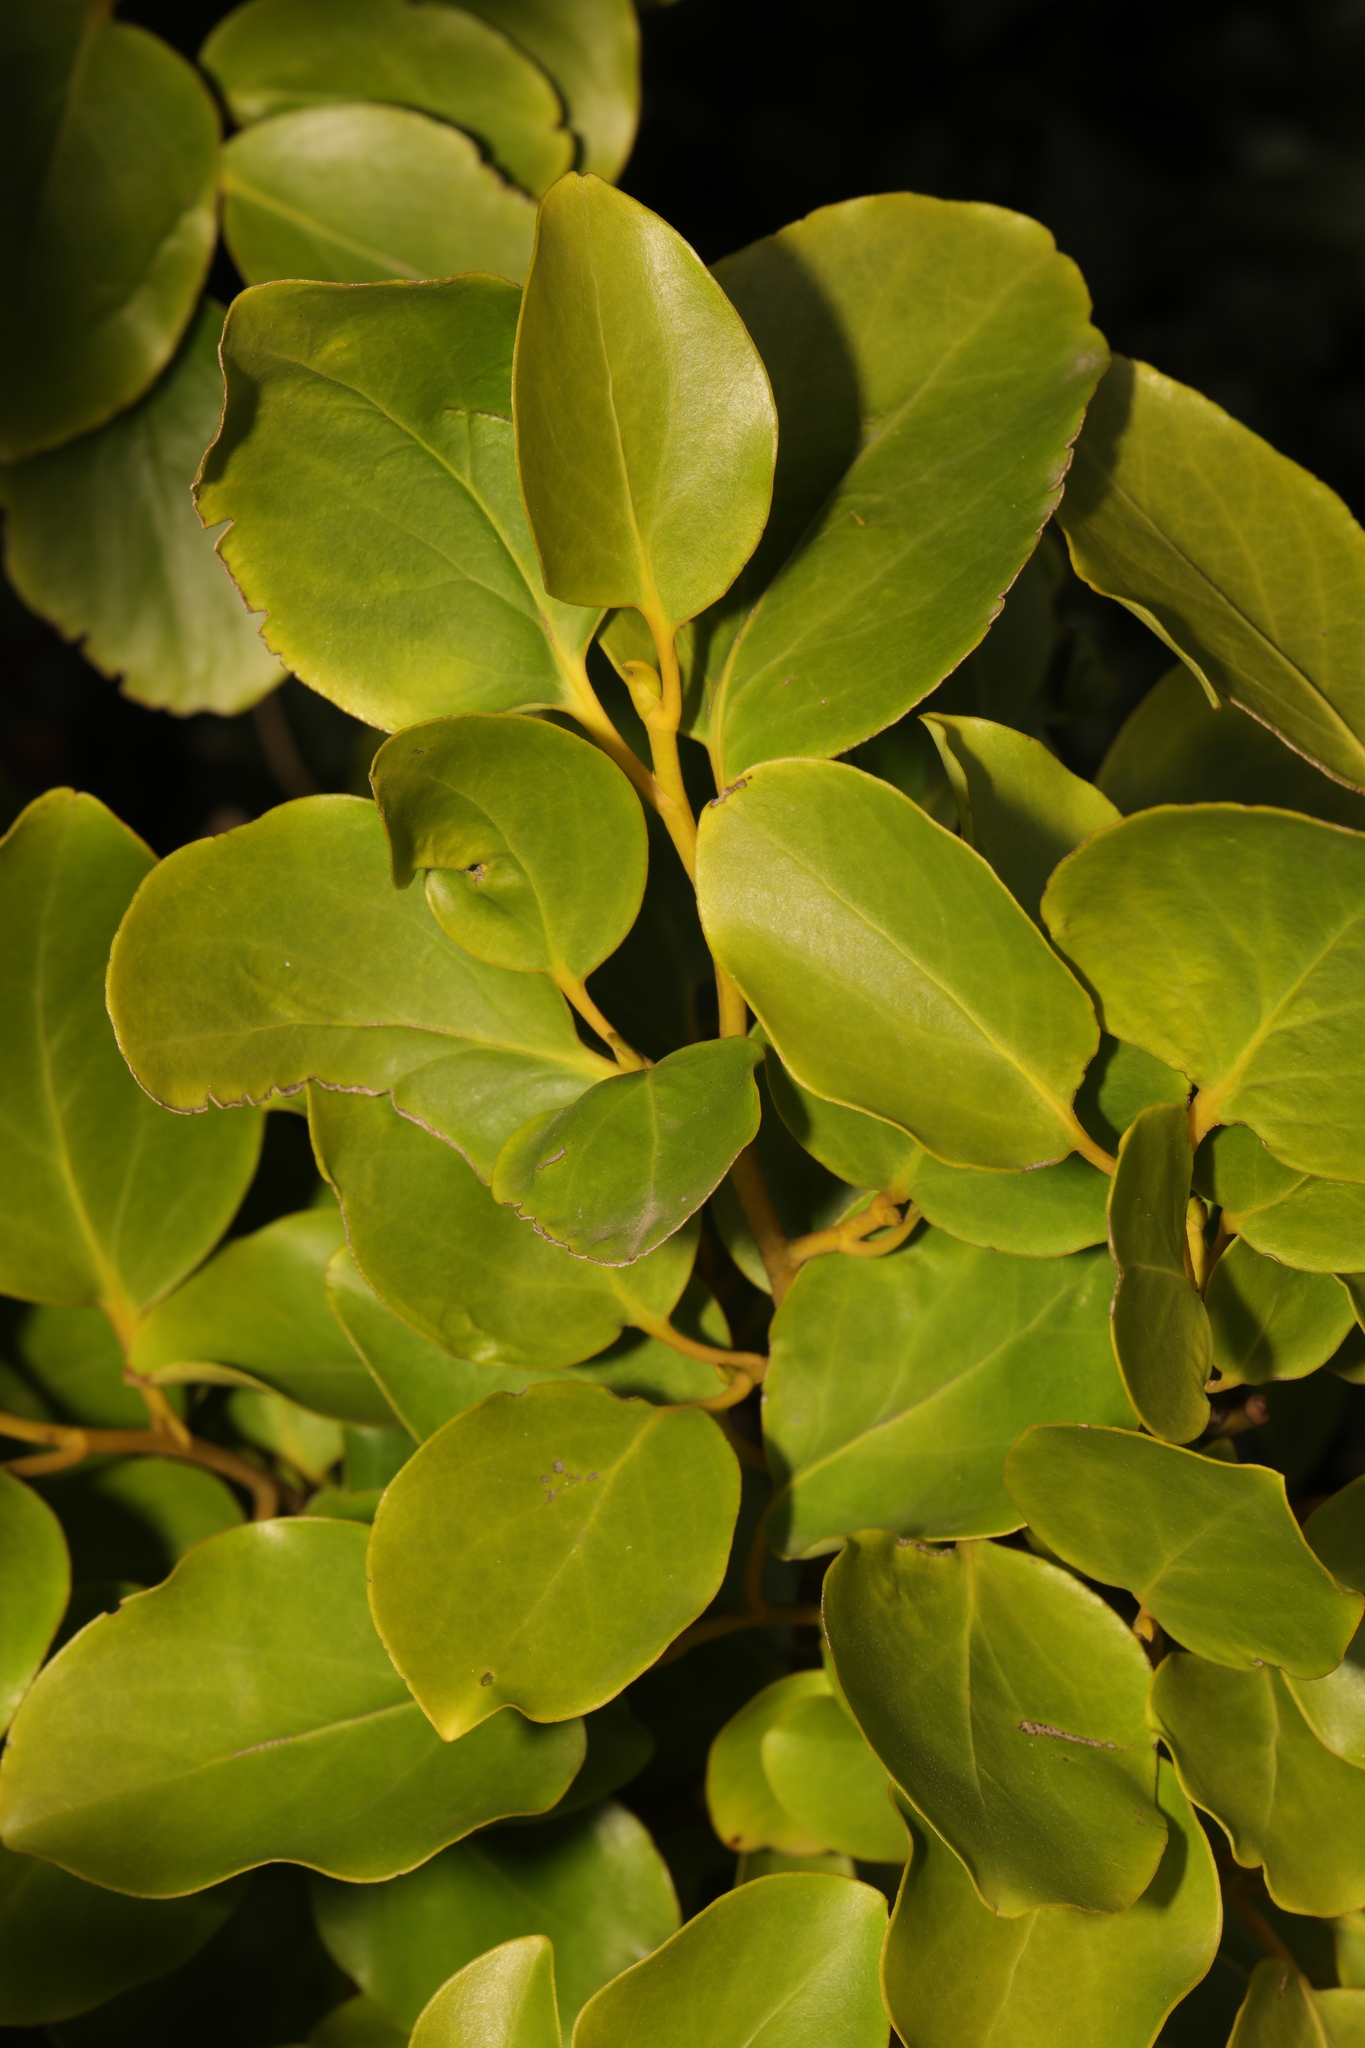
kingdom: Plantae
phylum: Tracheophyta
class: Magnoliopsida
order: Apiales
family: Griseliniaceae
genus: Griselinia
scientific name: Griselinia littoralis
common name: New zealand broadleaf
